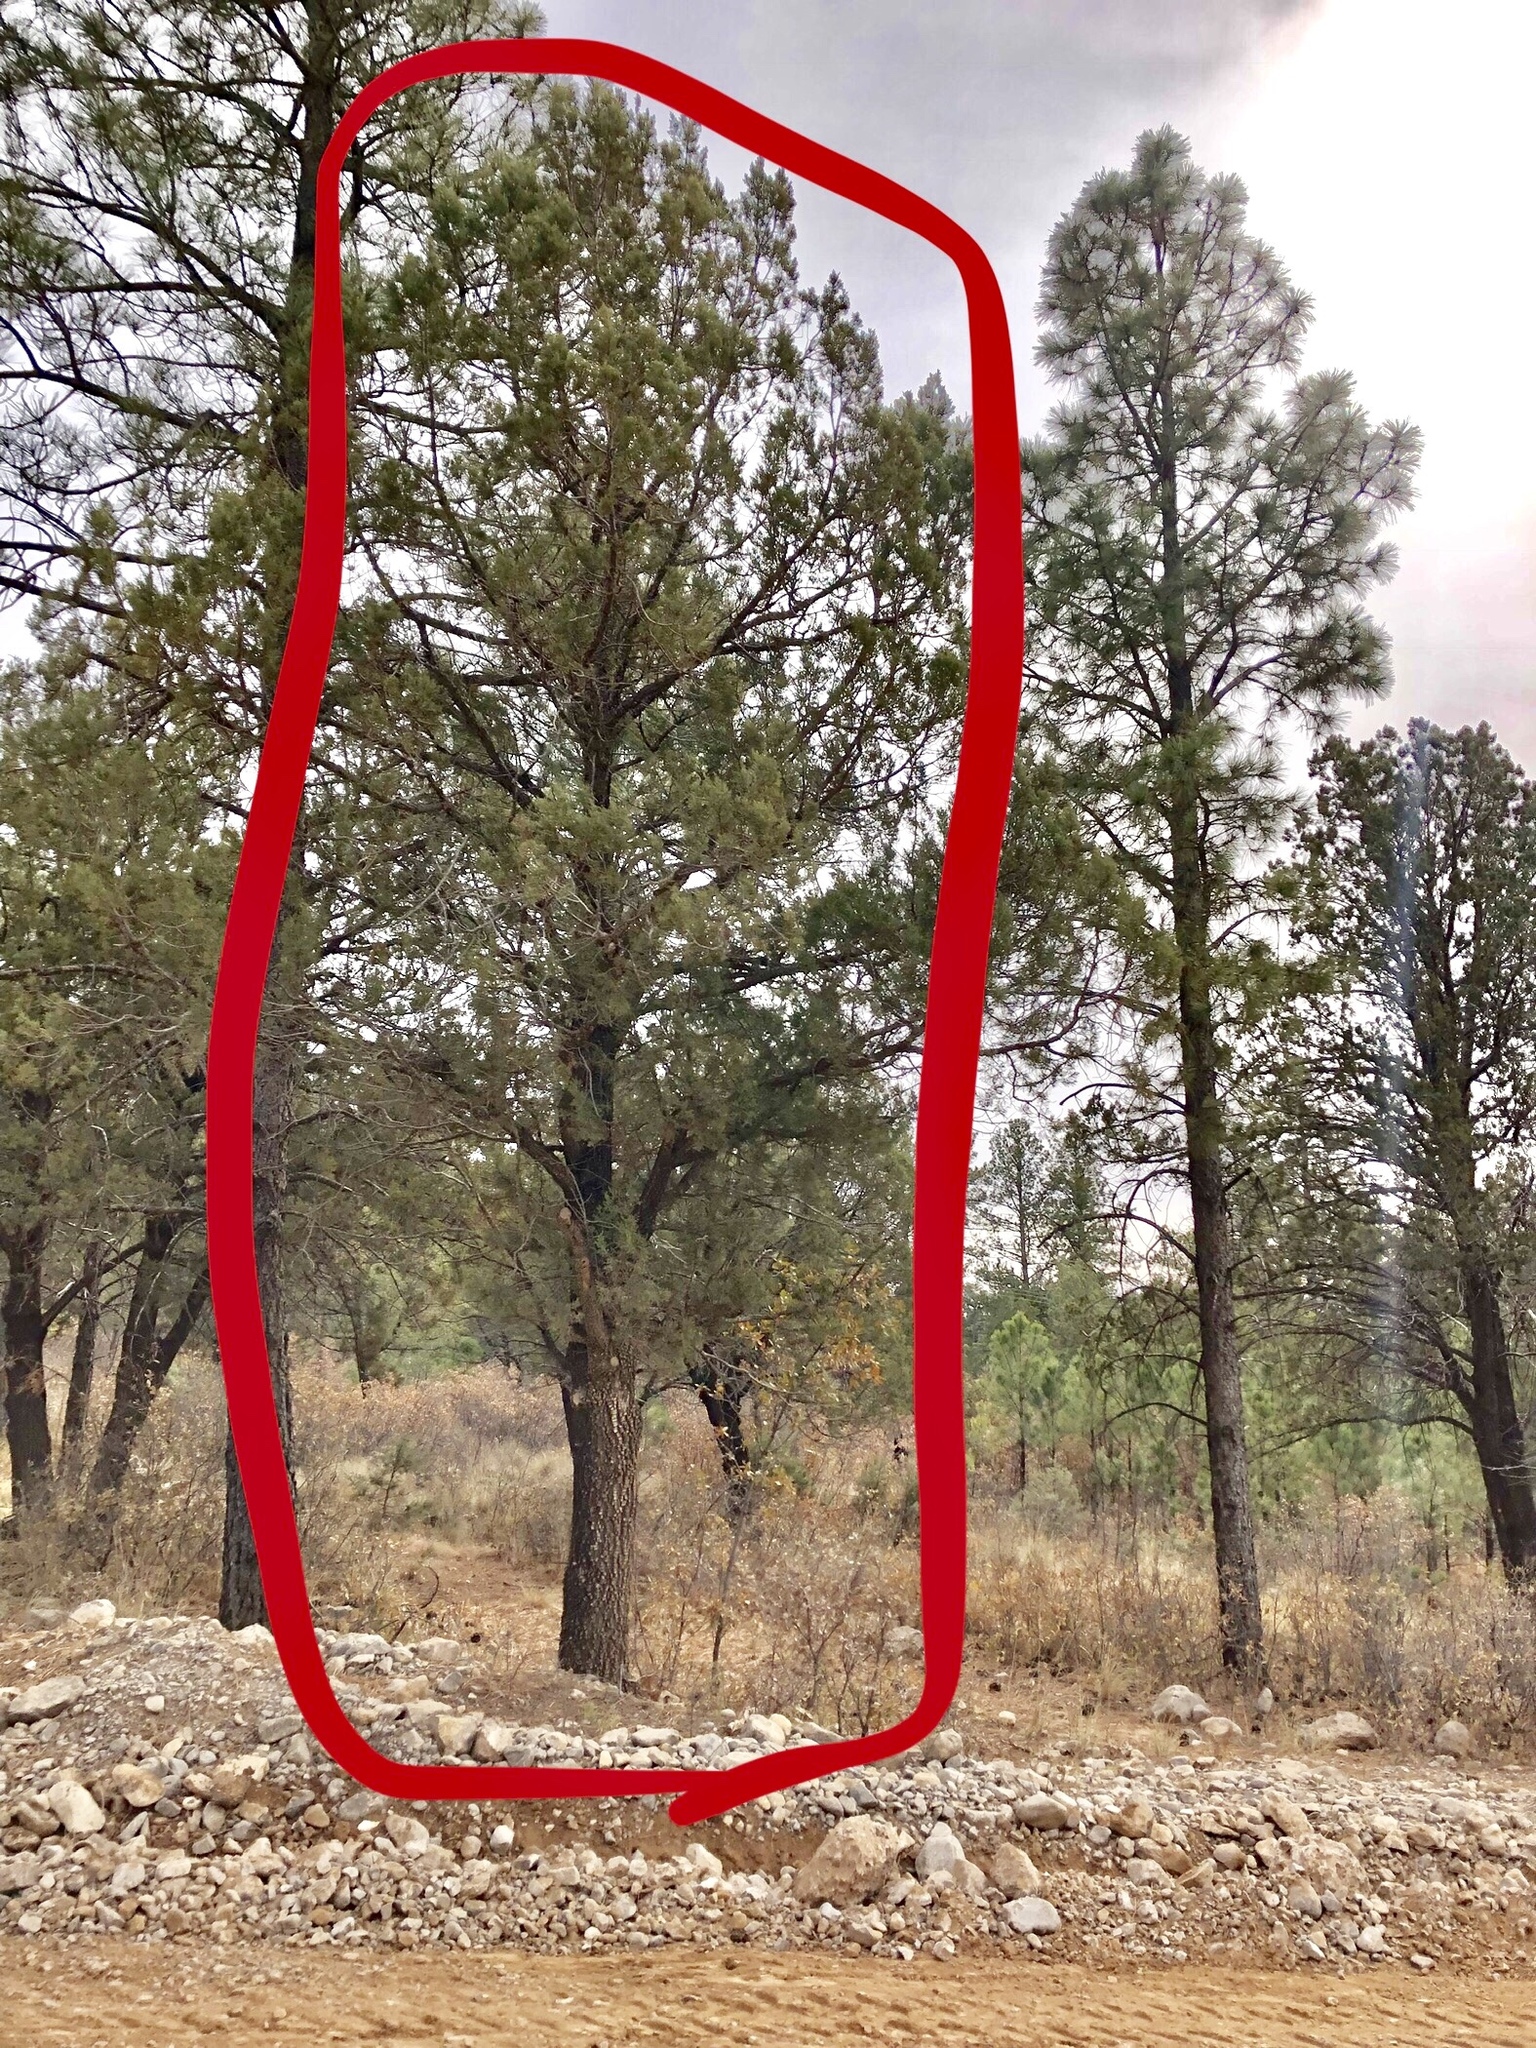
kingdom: Plantae
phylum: Tracheophyta
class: Pinopsida
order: Pinales
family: Cupressaceae
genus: Juniperus
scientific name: Juniperus deppeana
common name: Alligator juniper
